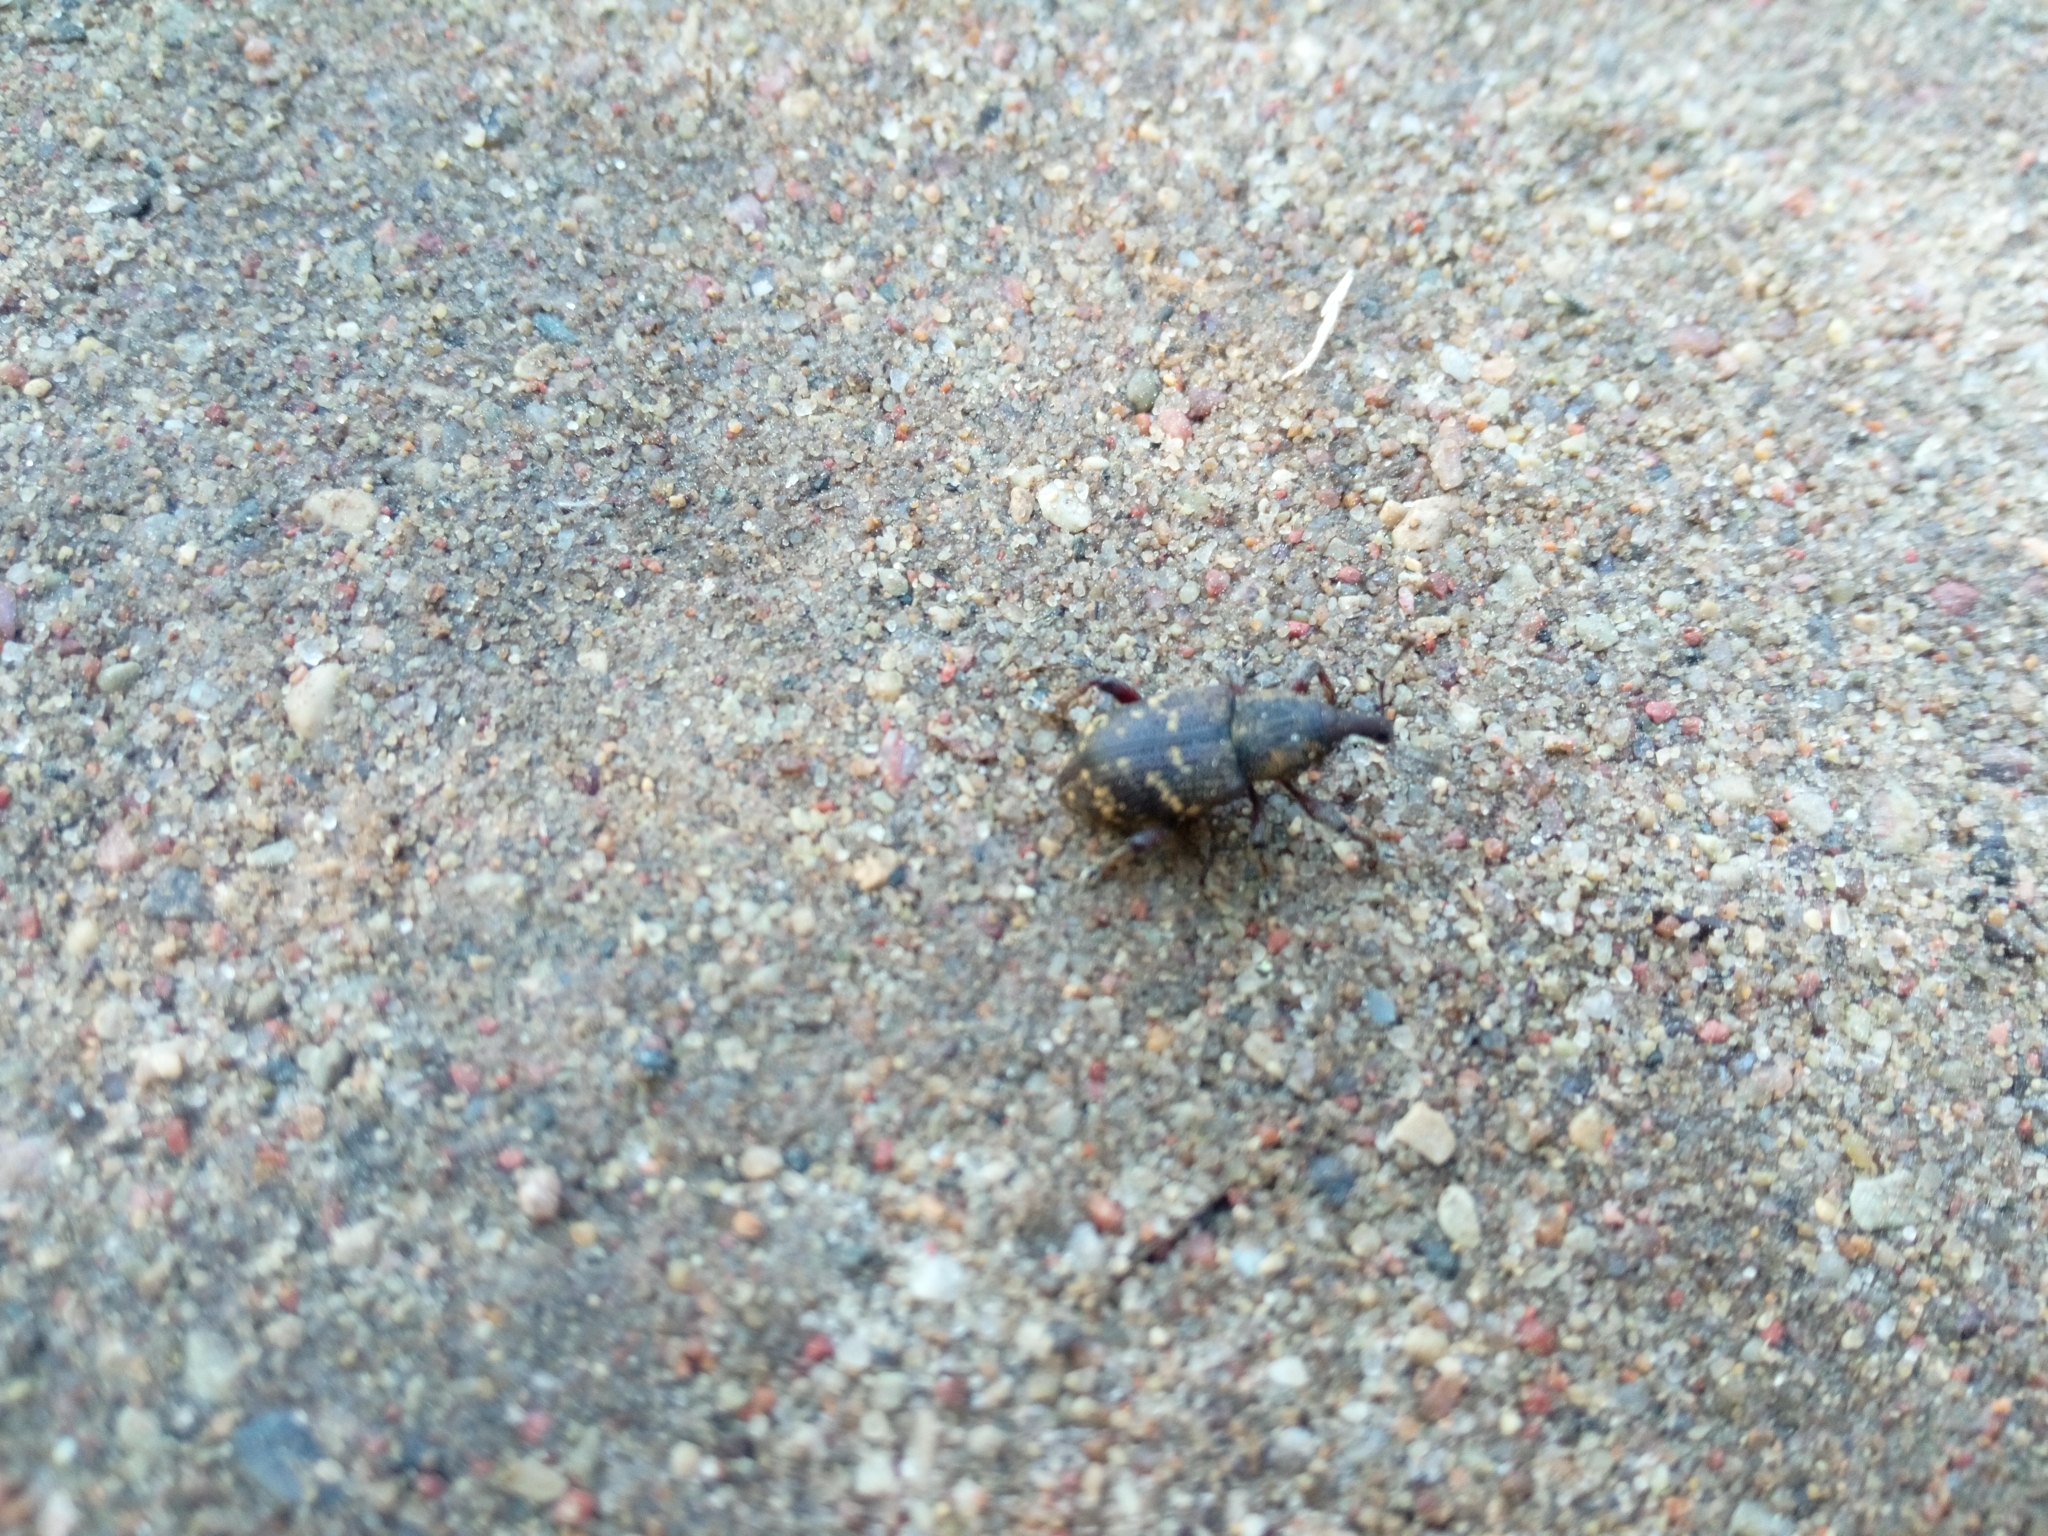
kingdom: Animalia
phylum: Arthropoda
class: Insecta
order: Coleoptera
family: Curculionidae
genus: Hylobius
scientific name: Hylobius abietis
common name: Large pine weevil
